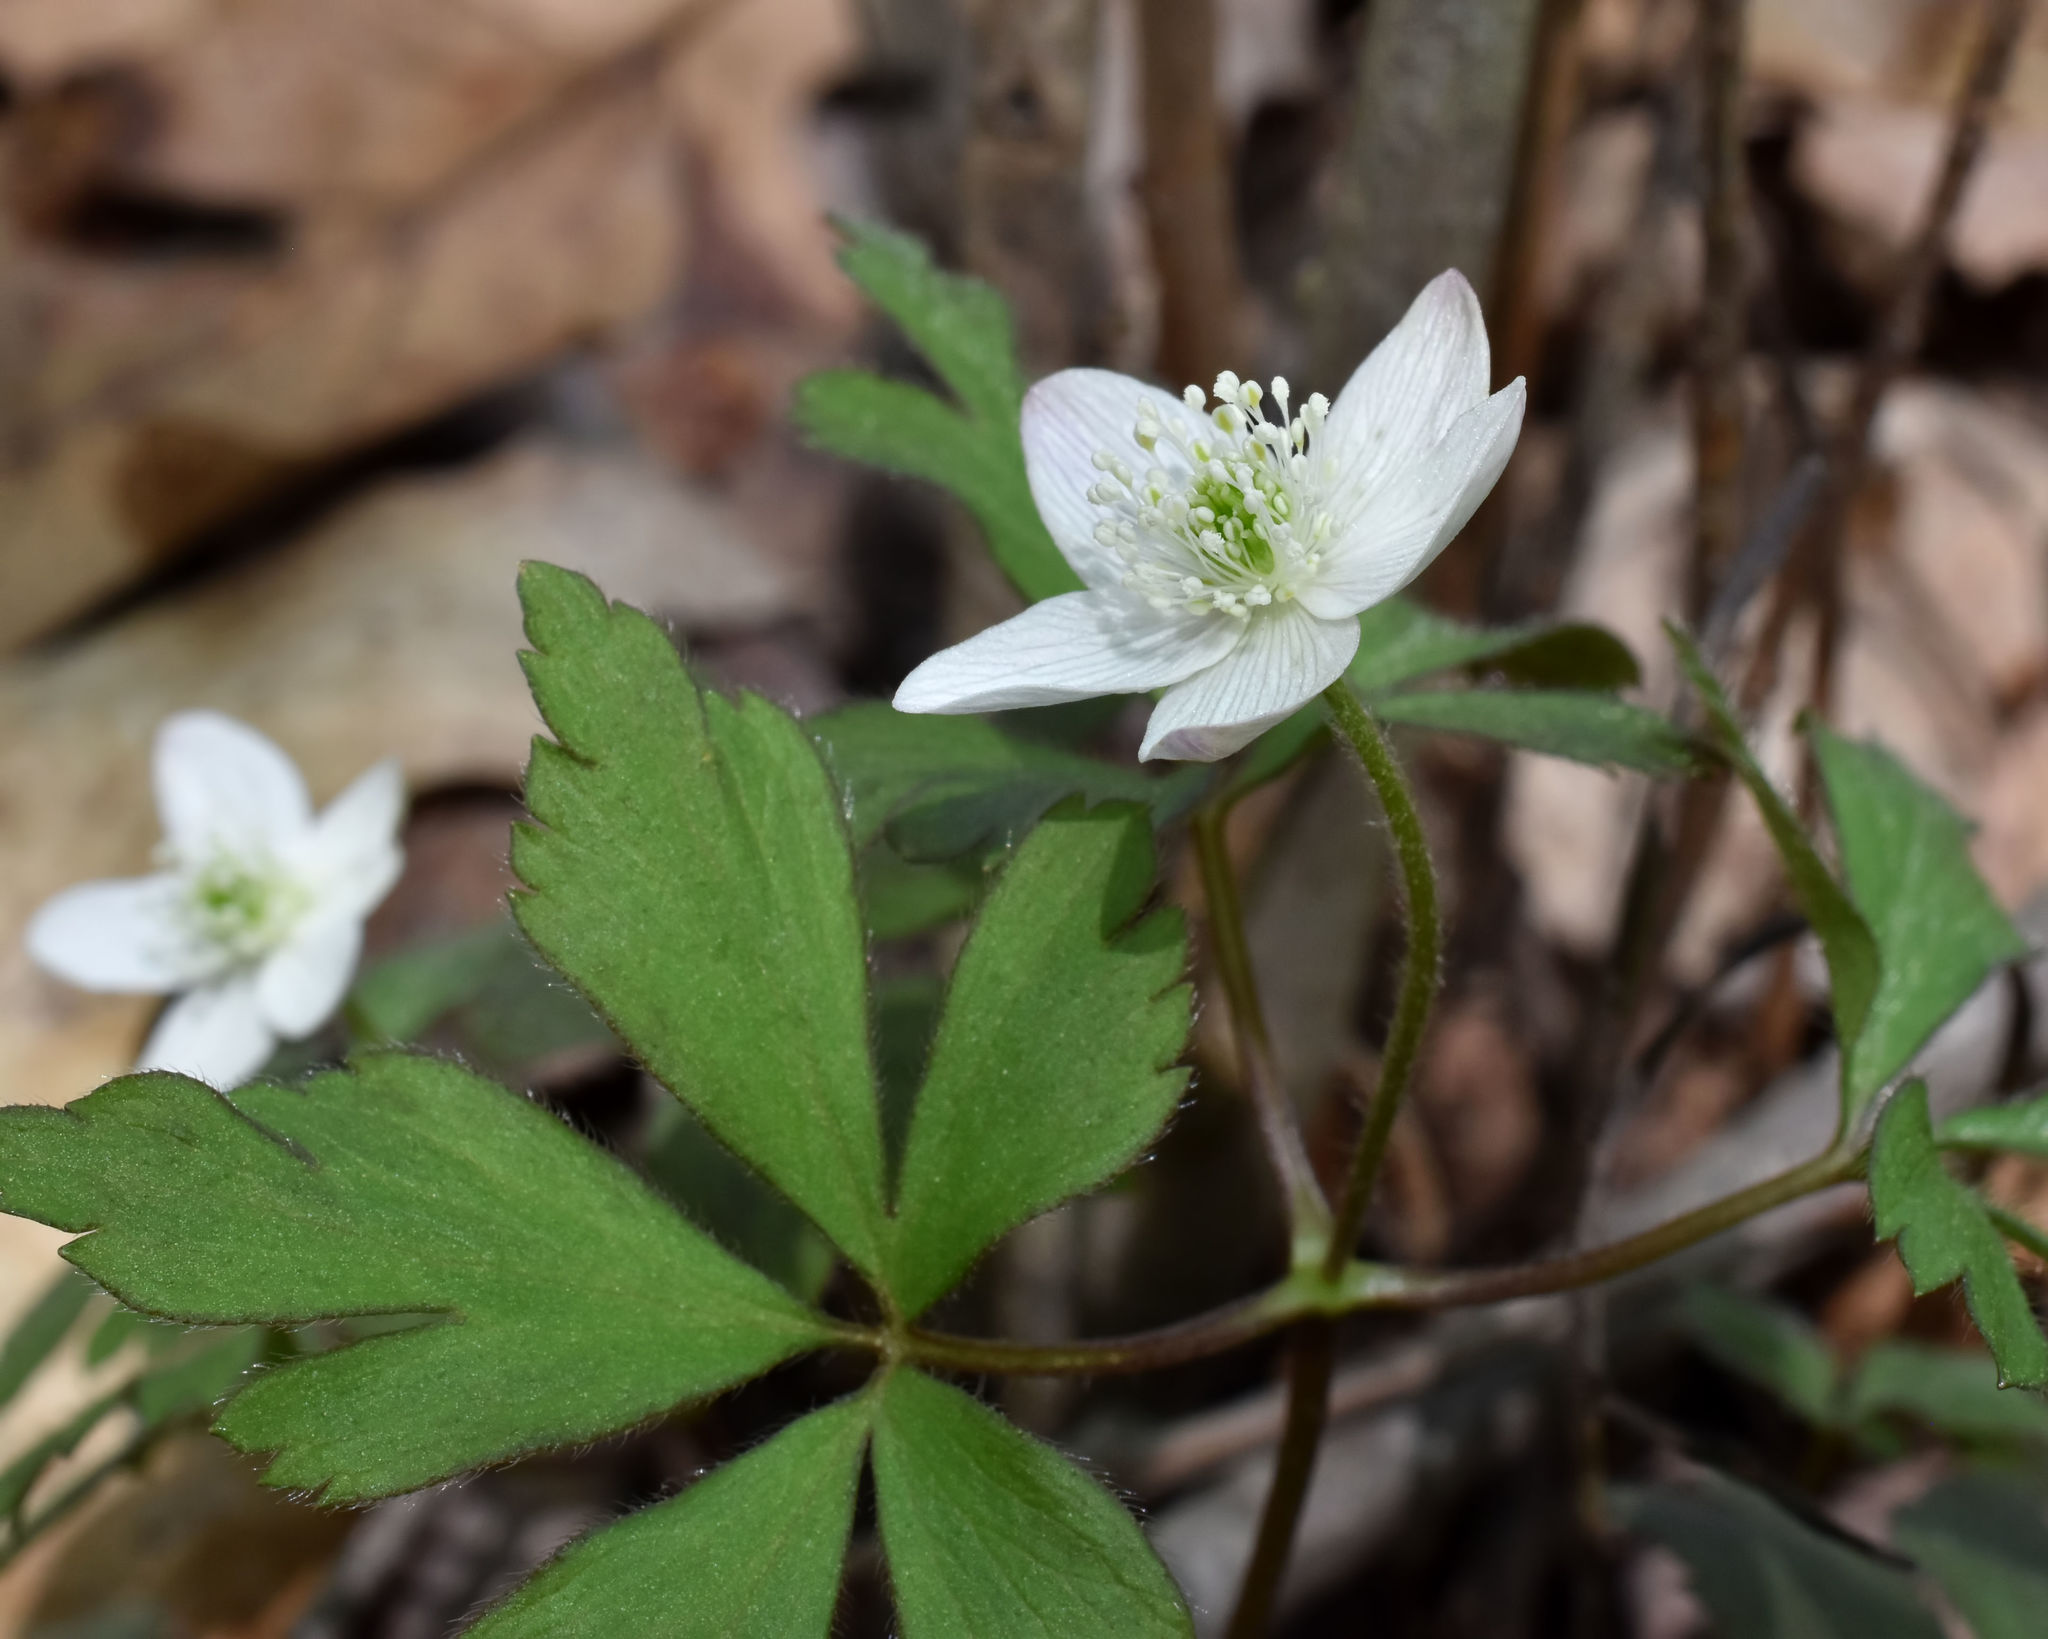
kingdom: Plantae
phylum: Tracheophyta
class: Magnoliopsida
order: Ranunculales
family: Ranunculaceae
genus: Anemone
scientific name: Anemone quinquefolia
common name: Wood anemone
